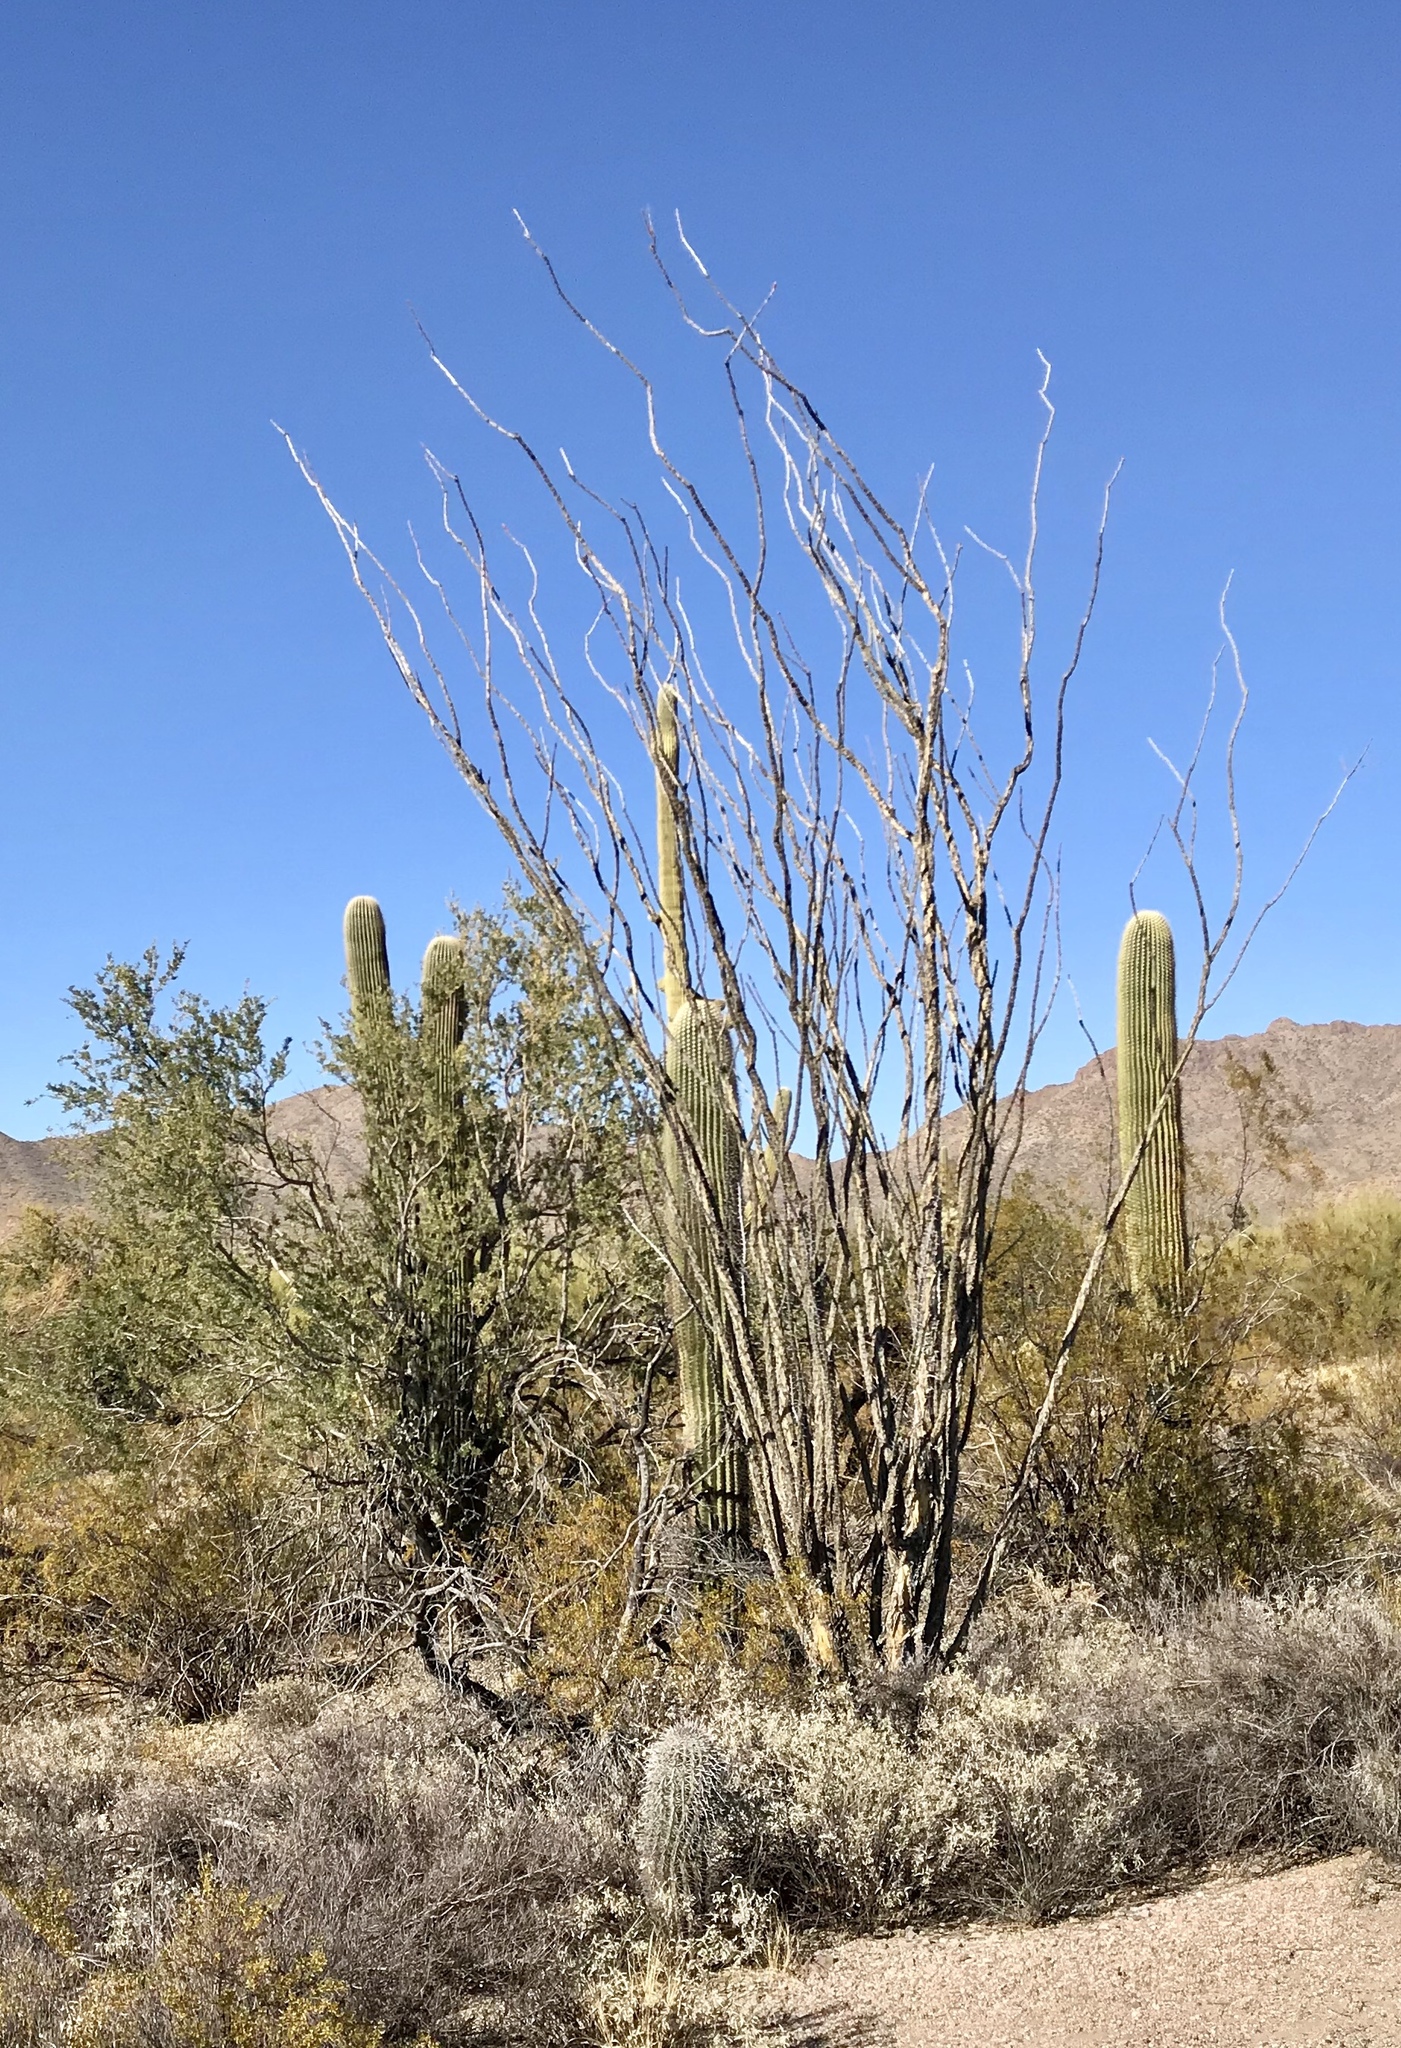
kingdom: Plantae
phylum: Tracheophyta
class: Magnoliopsida
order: Ericales
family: Fouquieriaceae
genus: Fouquieria
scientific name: Fouquieria splendens
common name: Vine-cactus
